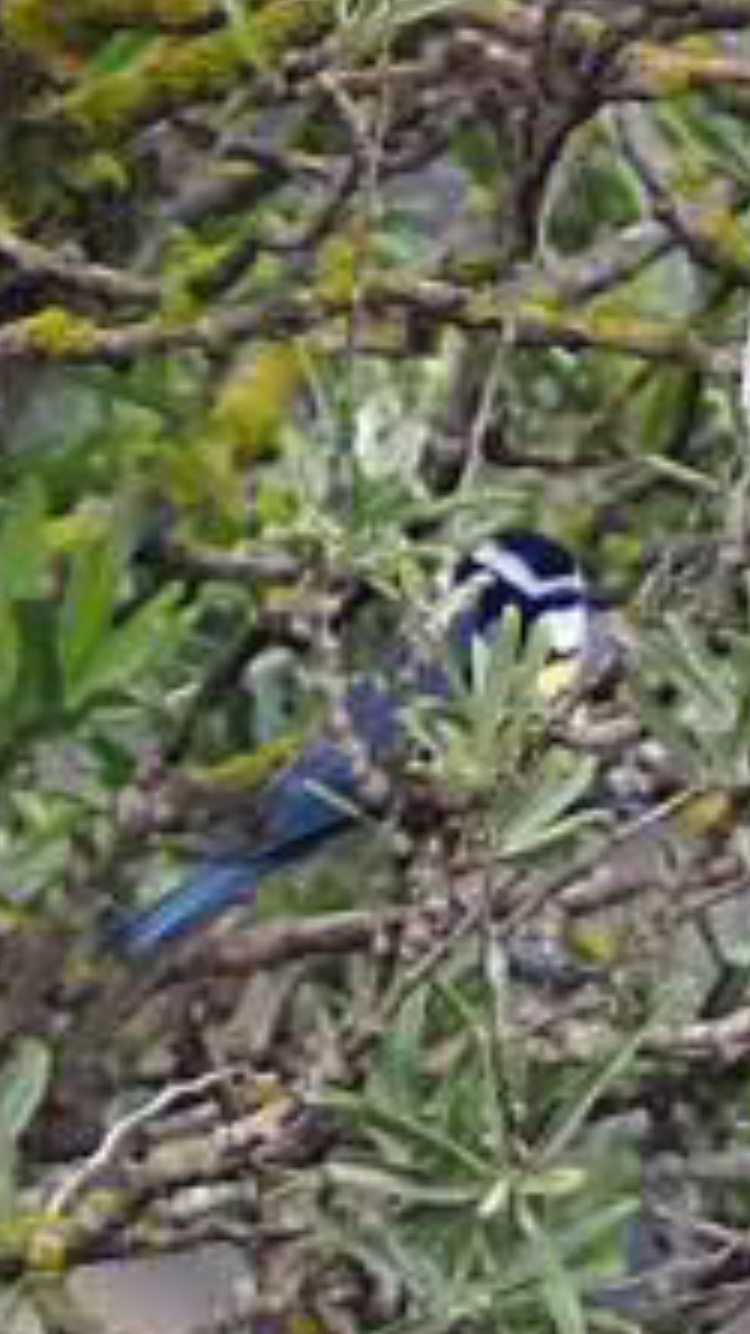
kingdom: Animalia
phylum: Chordata
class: Aves
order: Passeriformes
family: Paridae
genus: Cyanistes
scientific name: Cyanistes teneriffae
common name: African blue tit
